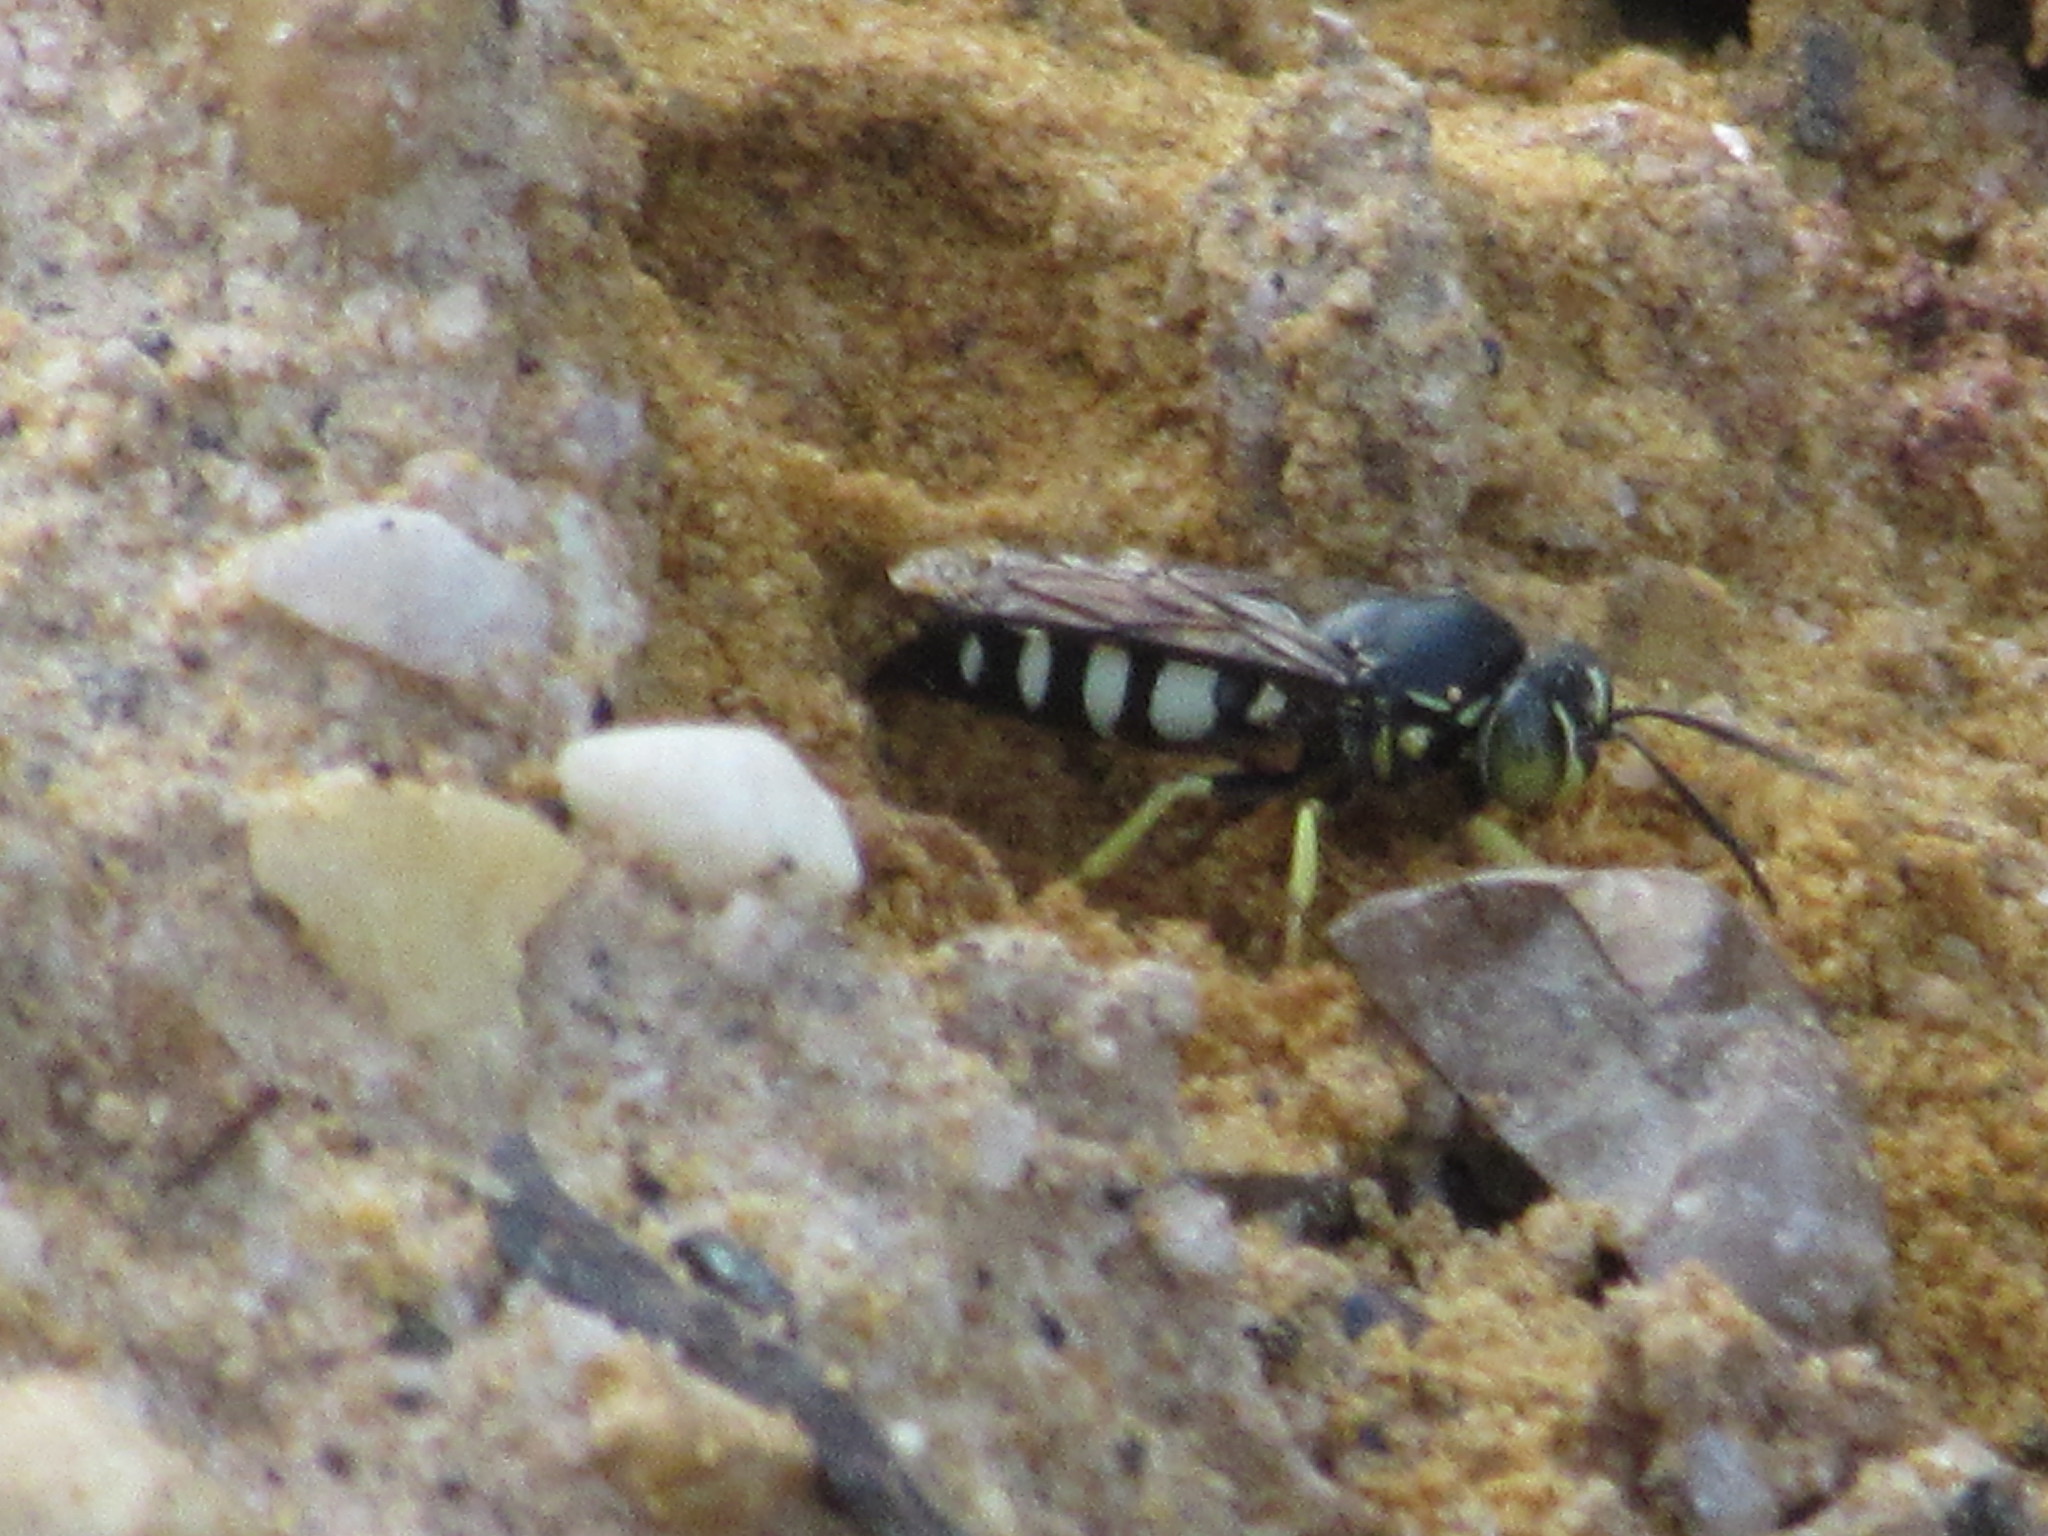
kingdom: Animalia
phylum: Arthropoda
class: Insecta
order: Hymenoptera
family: Crabronidae
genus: Bicyrtes
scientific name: Bicyrtes quadrifasciatus
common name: Four-banded stink bug hunter wasp
